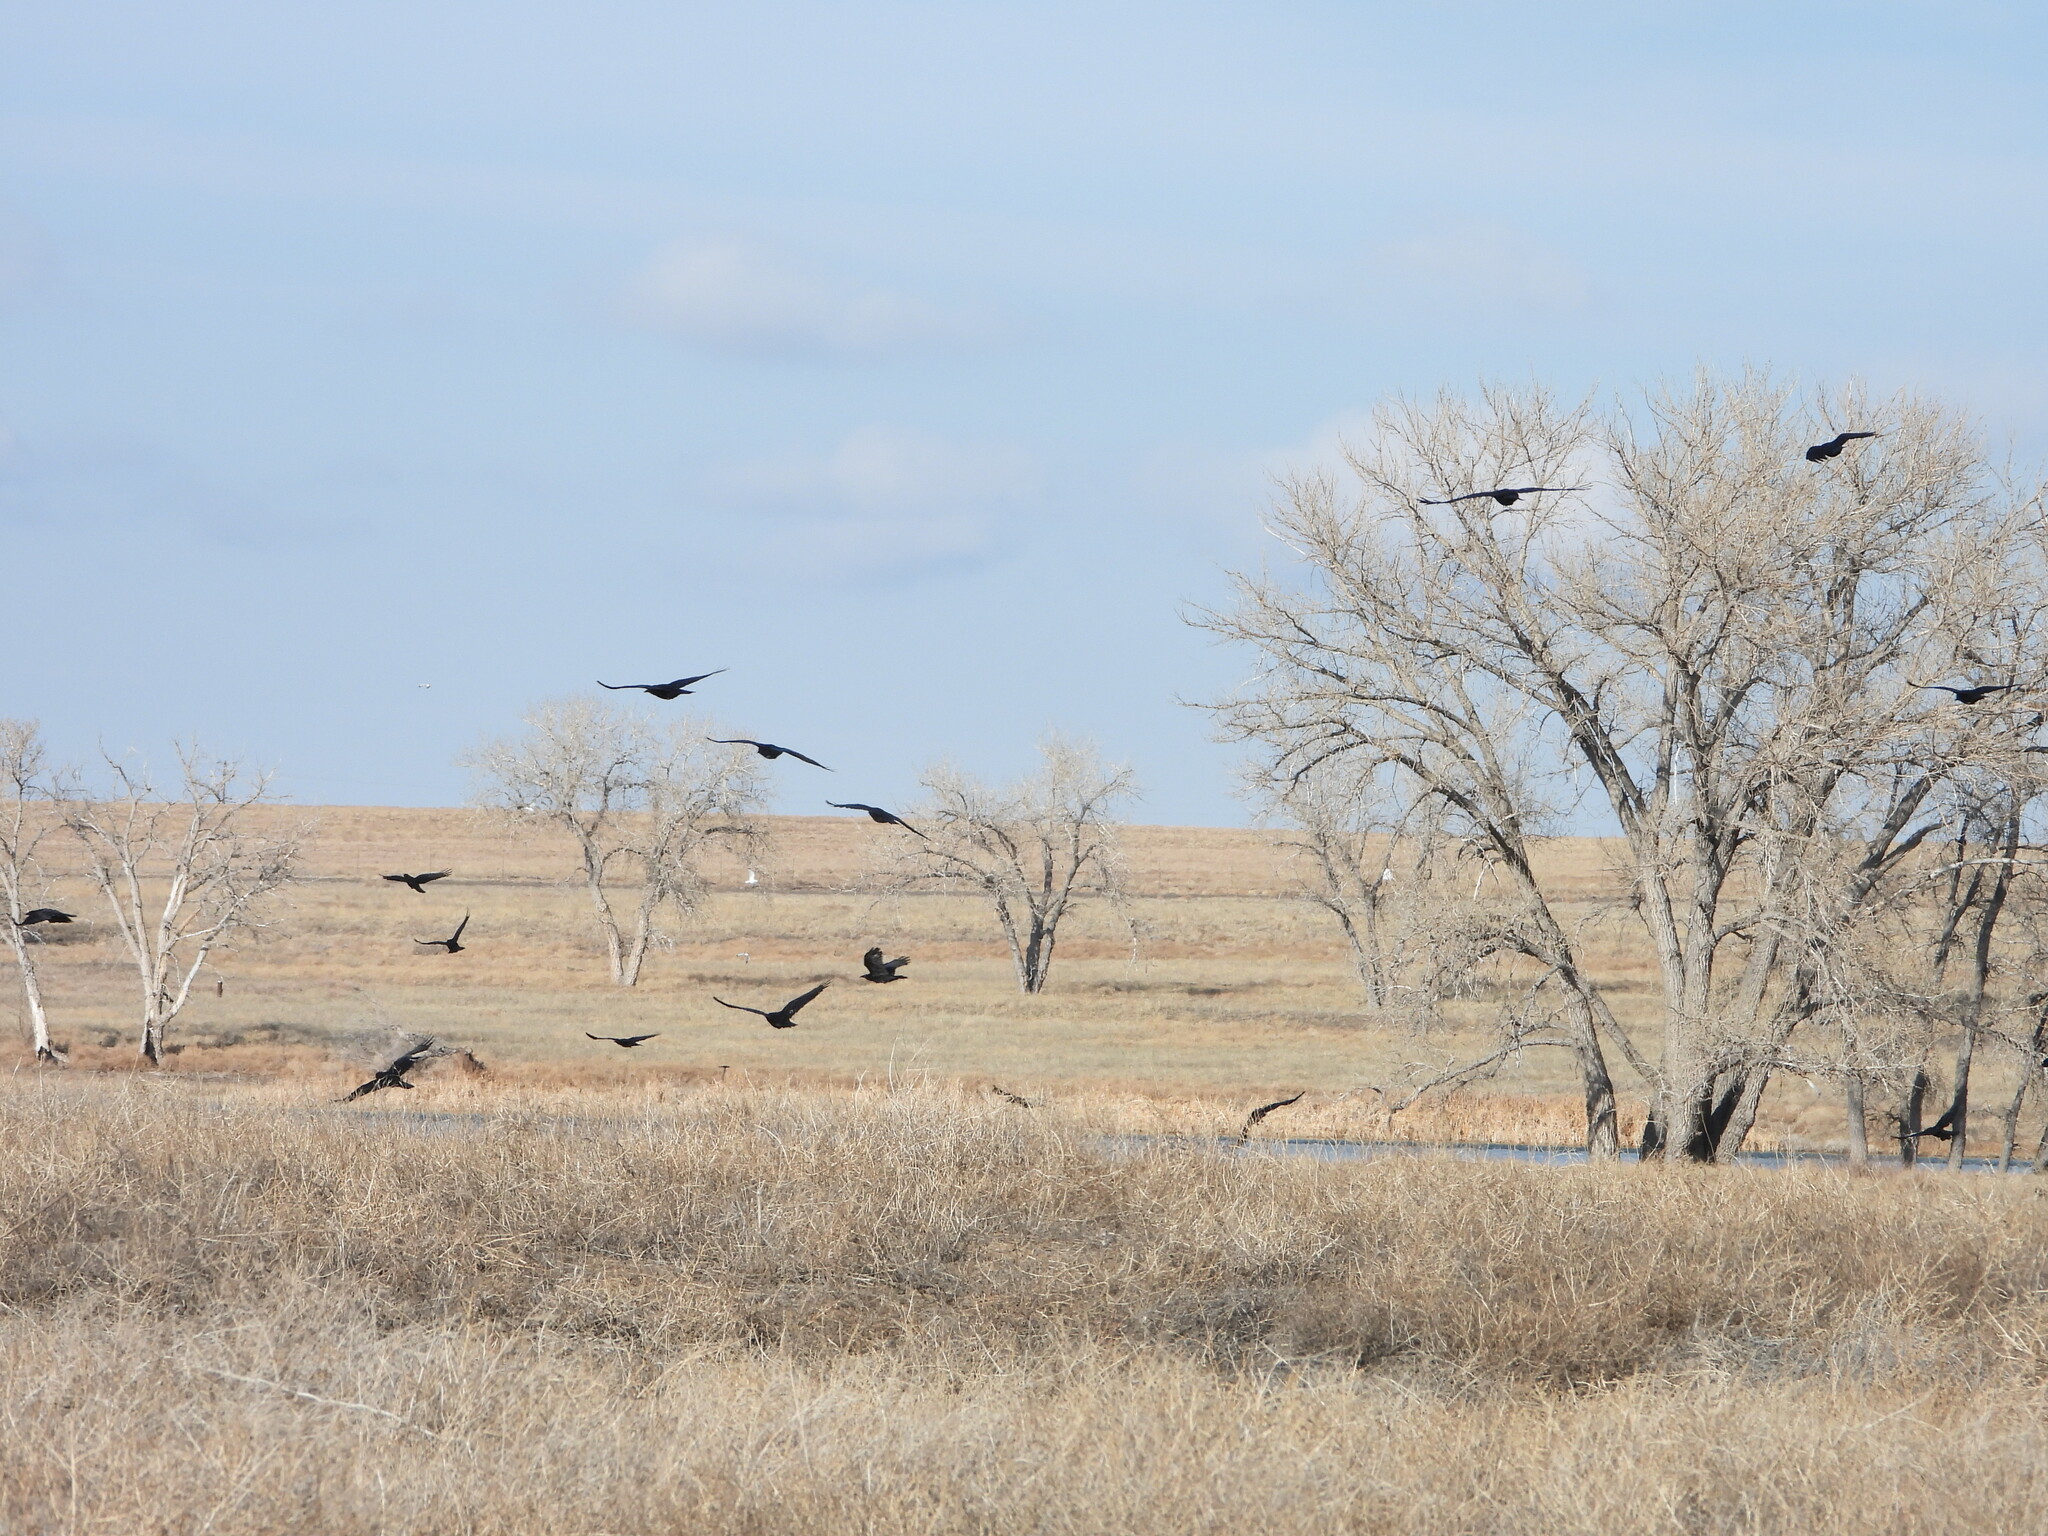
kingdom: Animalia
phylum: Chordata
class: Aves
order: Passeriformes
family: Corvidae
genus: Corvus
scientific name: Corvus brachyrhynchos
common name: American crow
